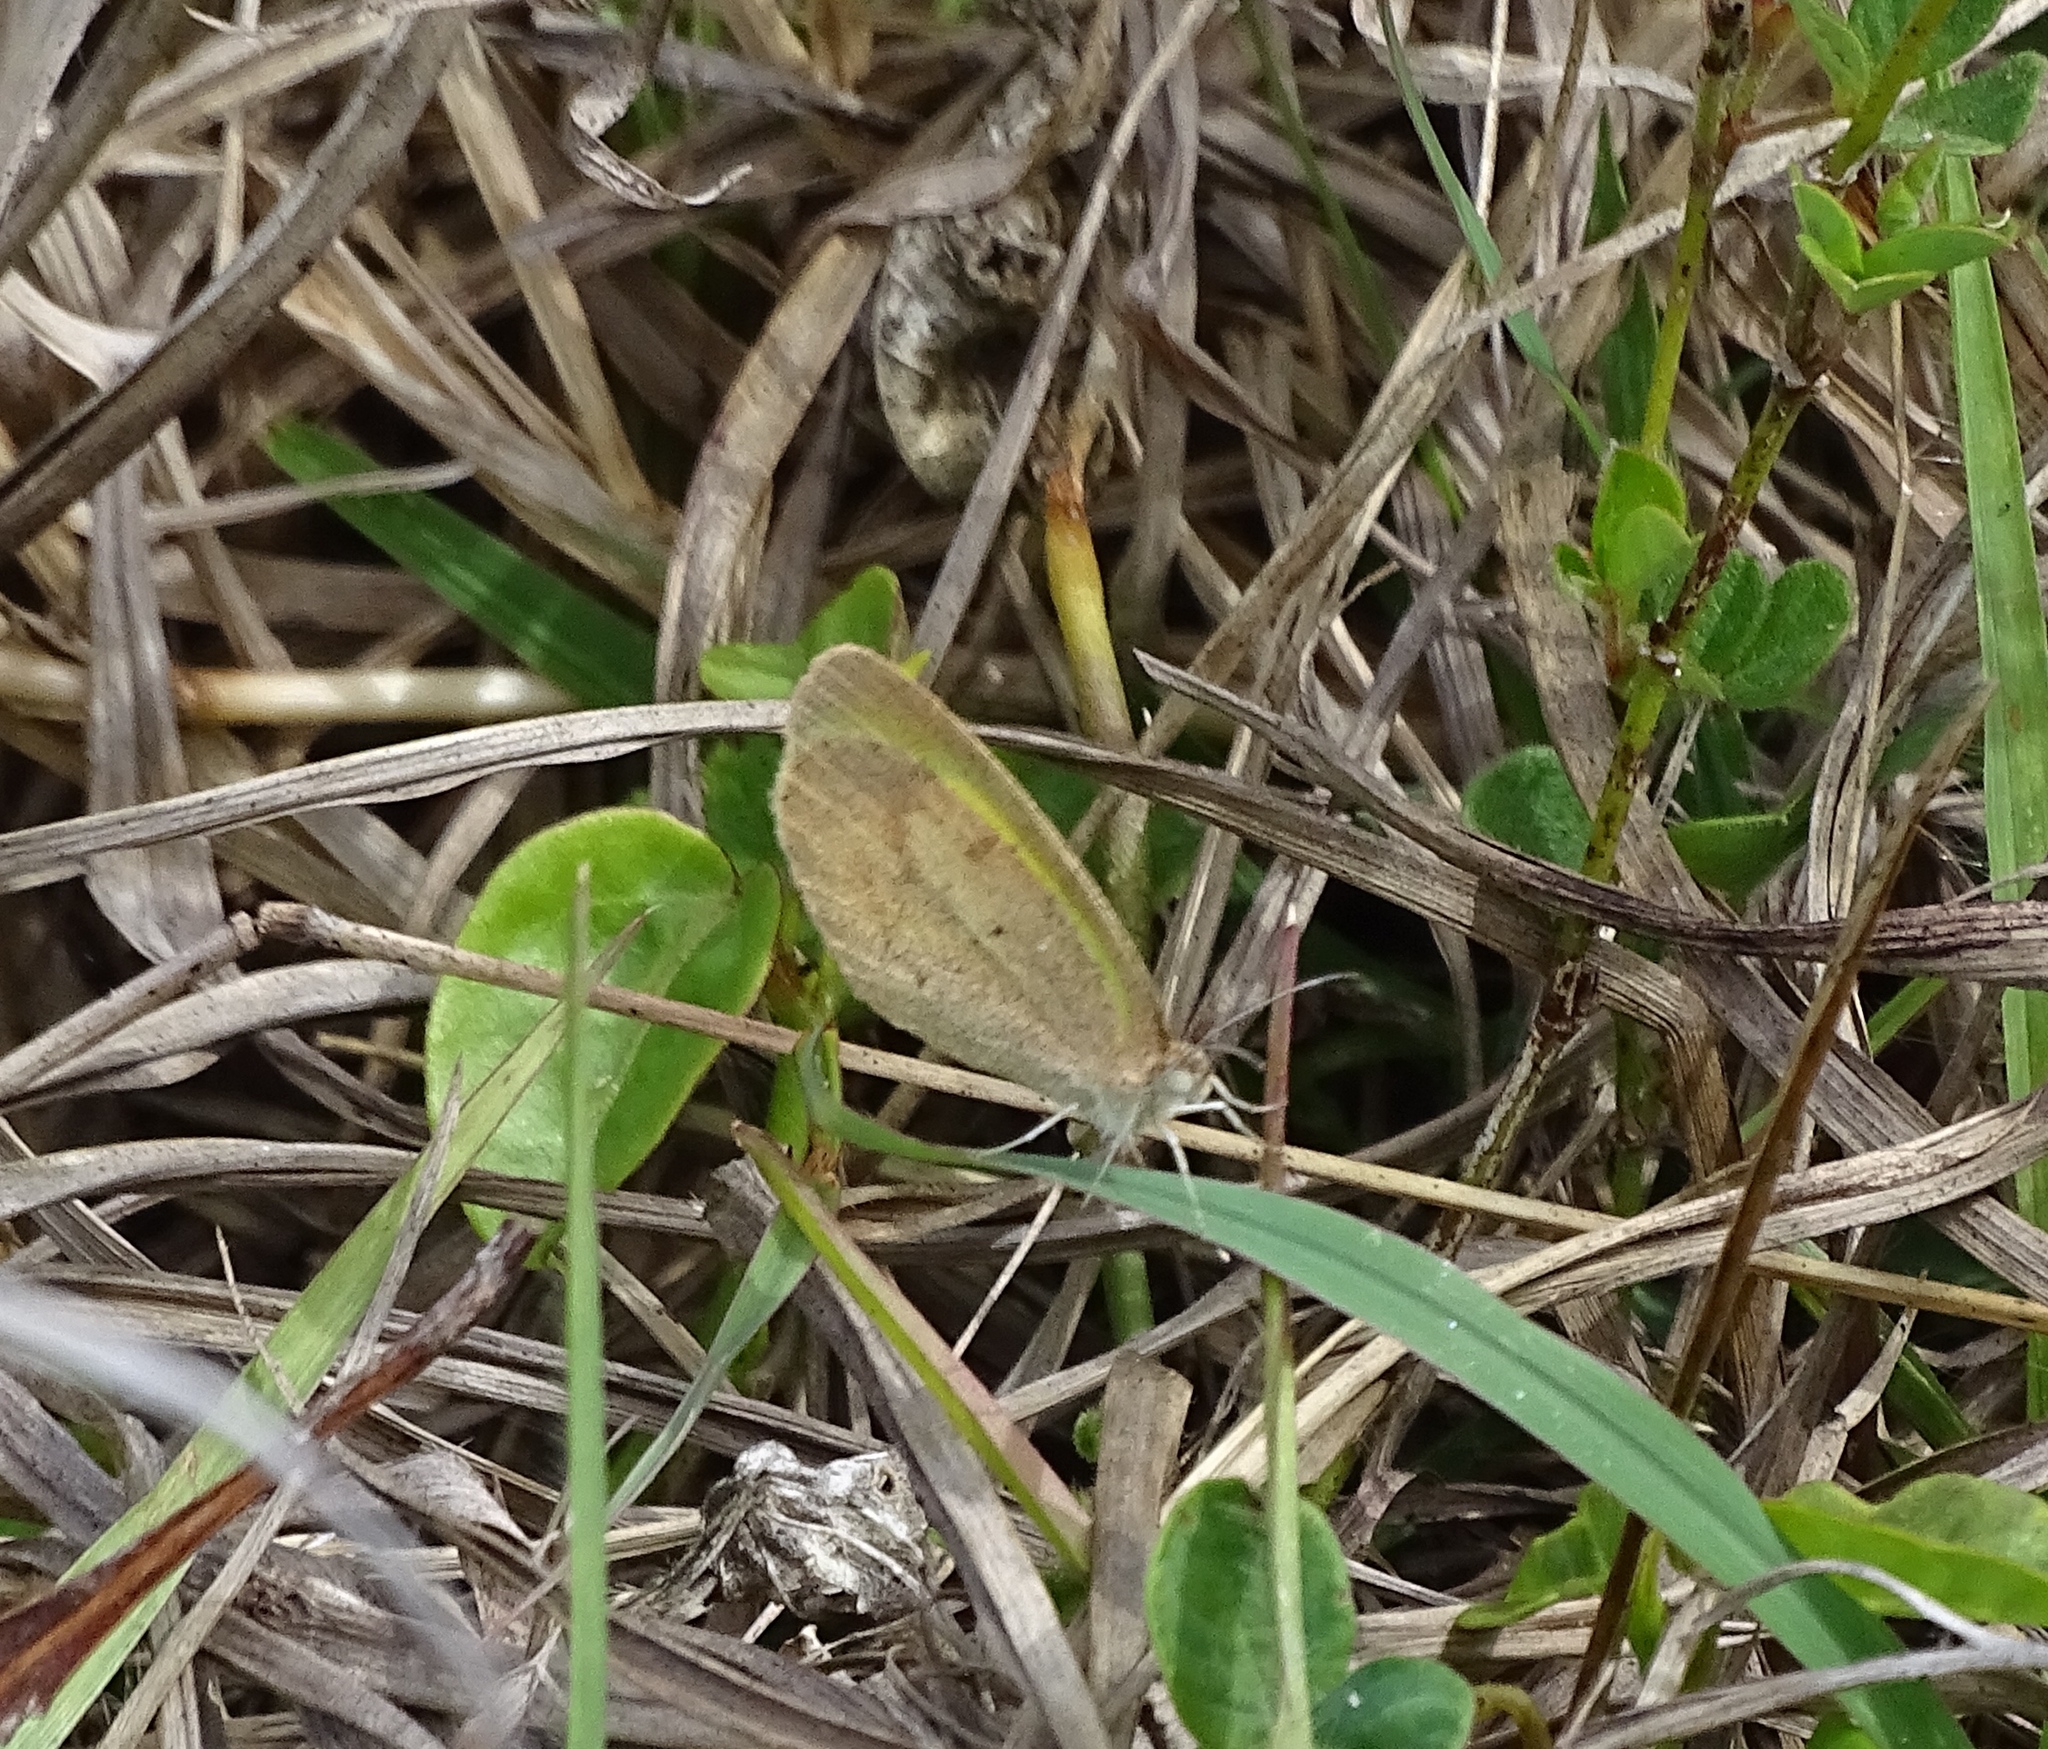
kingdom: Animalia
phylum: Arthropoda
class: Insecta
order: Lepidoptera
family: Pieridae
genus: Eurema
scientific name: Eurema daira
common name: Barred sulphur
